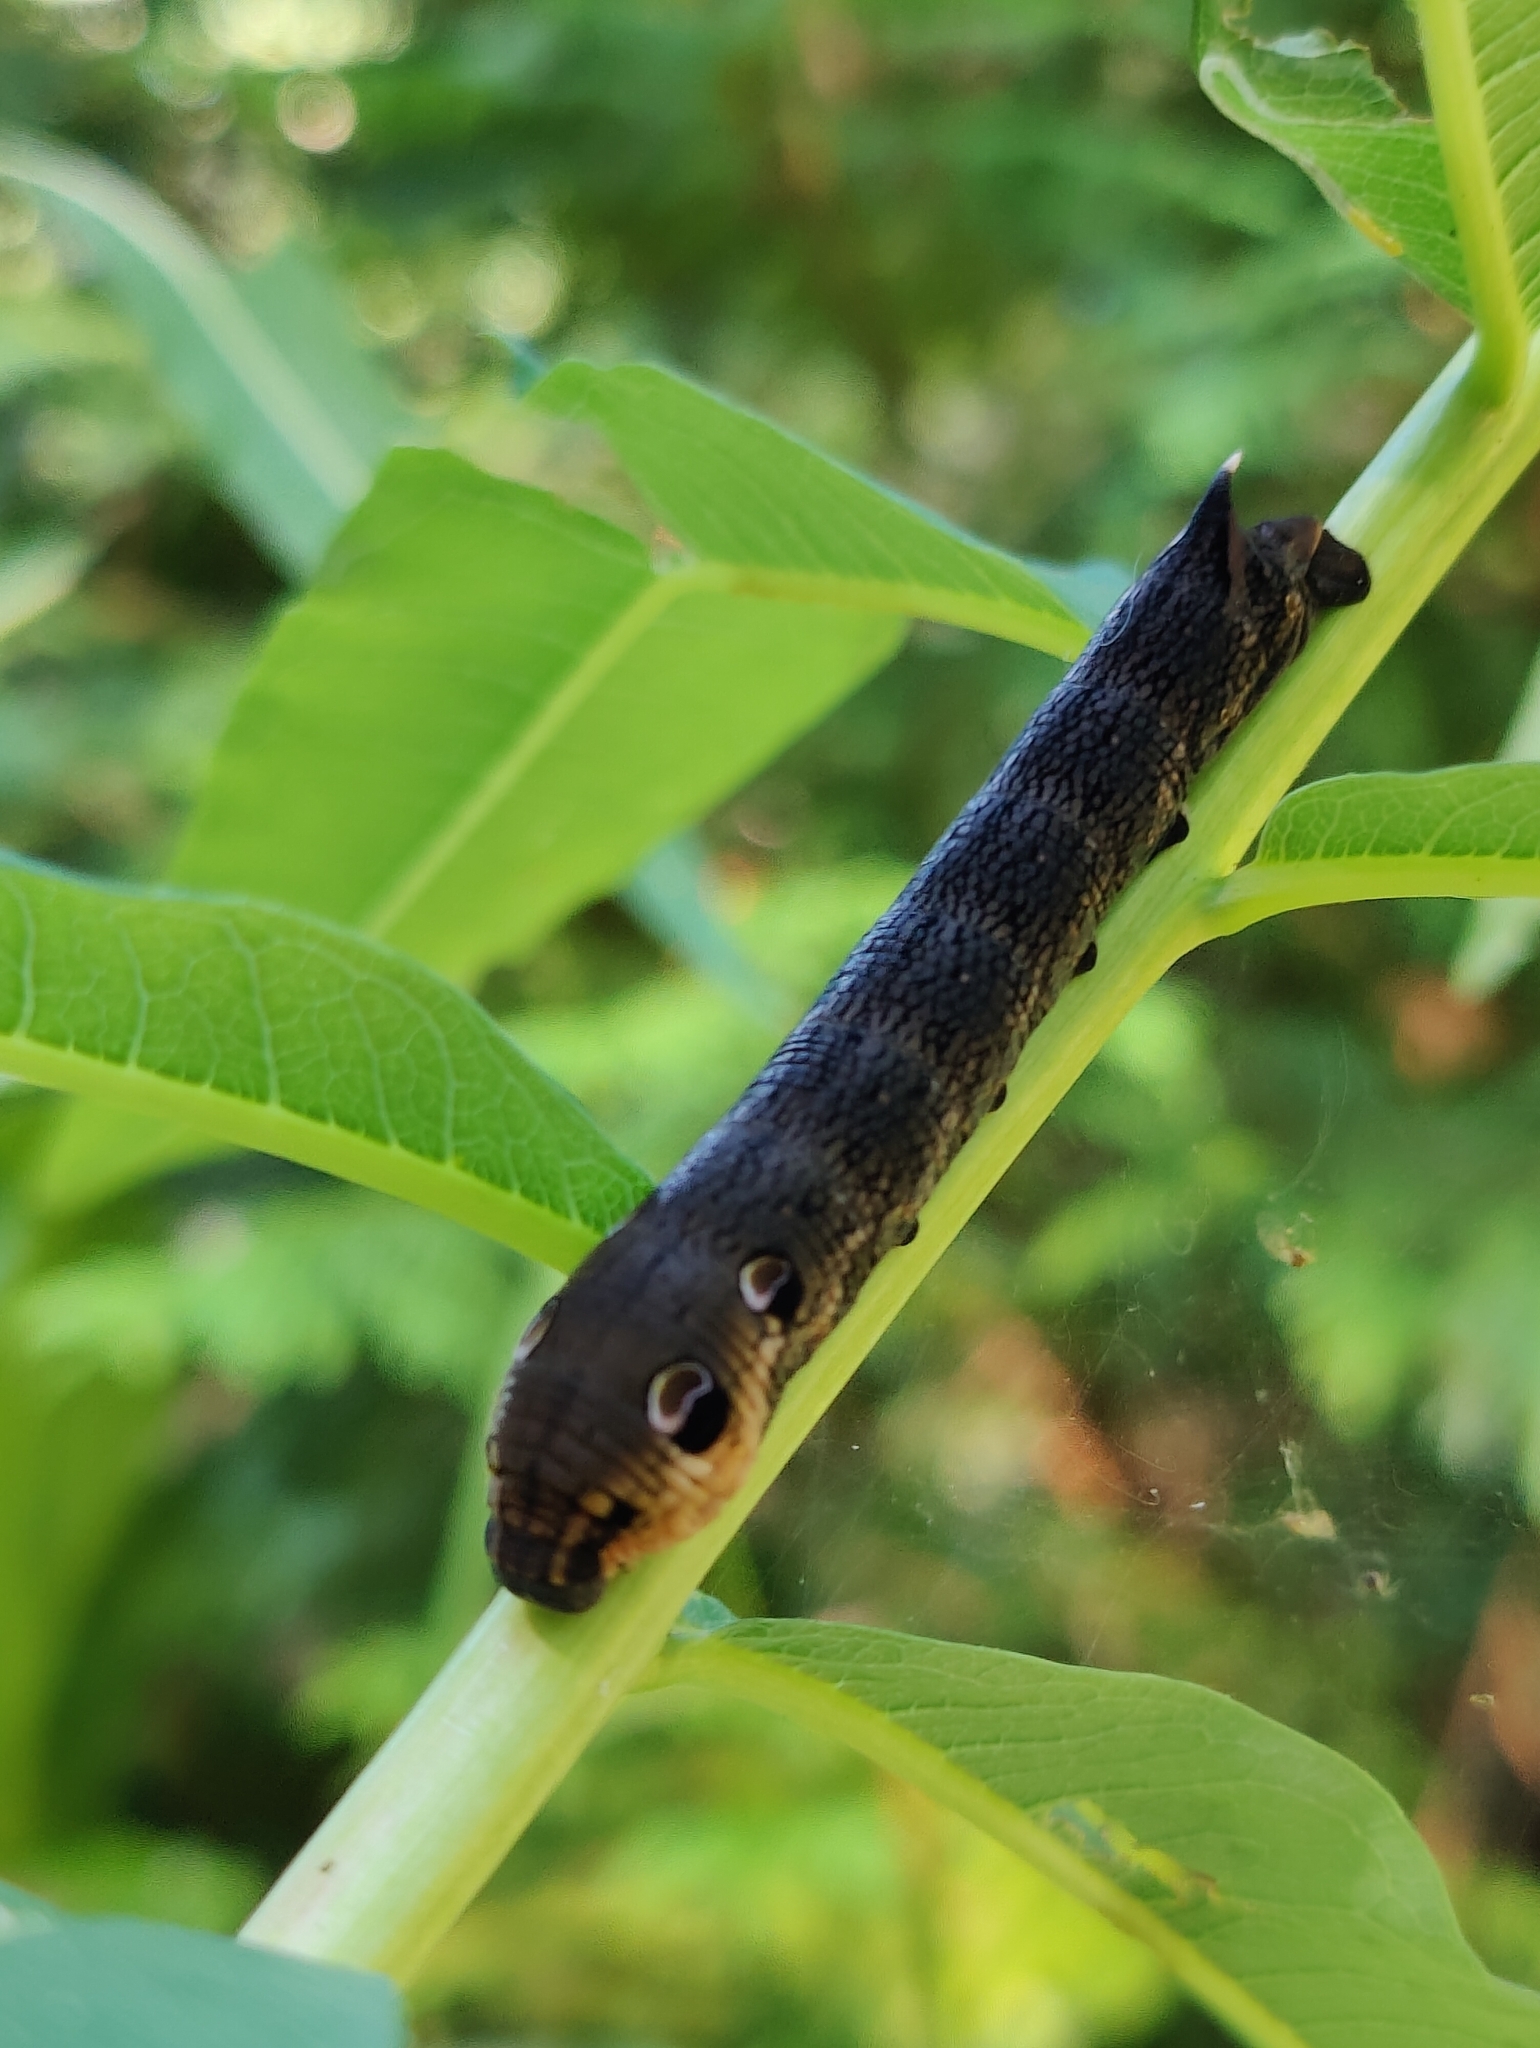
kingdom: Animalia
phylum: Arthropoda
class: Insecta
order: Lepidoptera
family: Sphingidae
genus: Deilephila
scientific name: Deilephila elpenor
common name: Elephant hawk-moth
